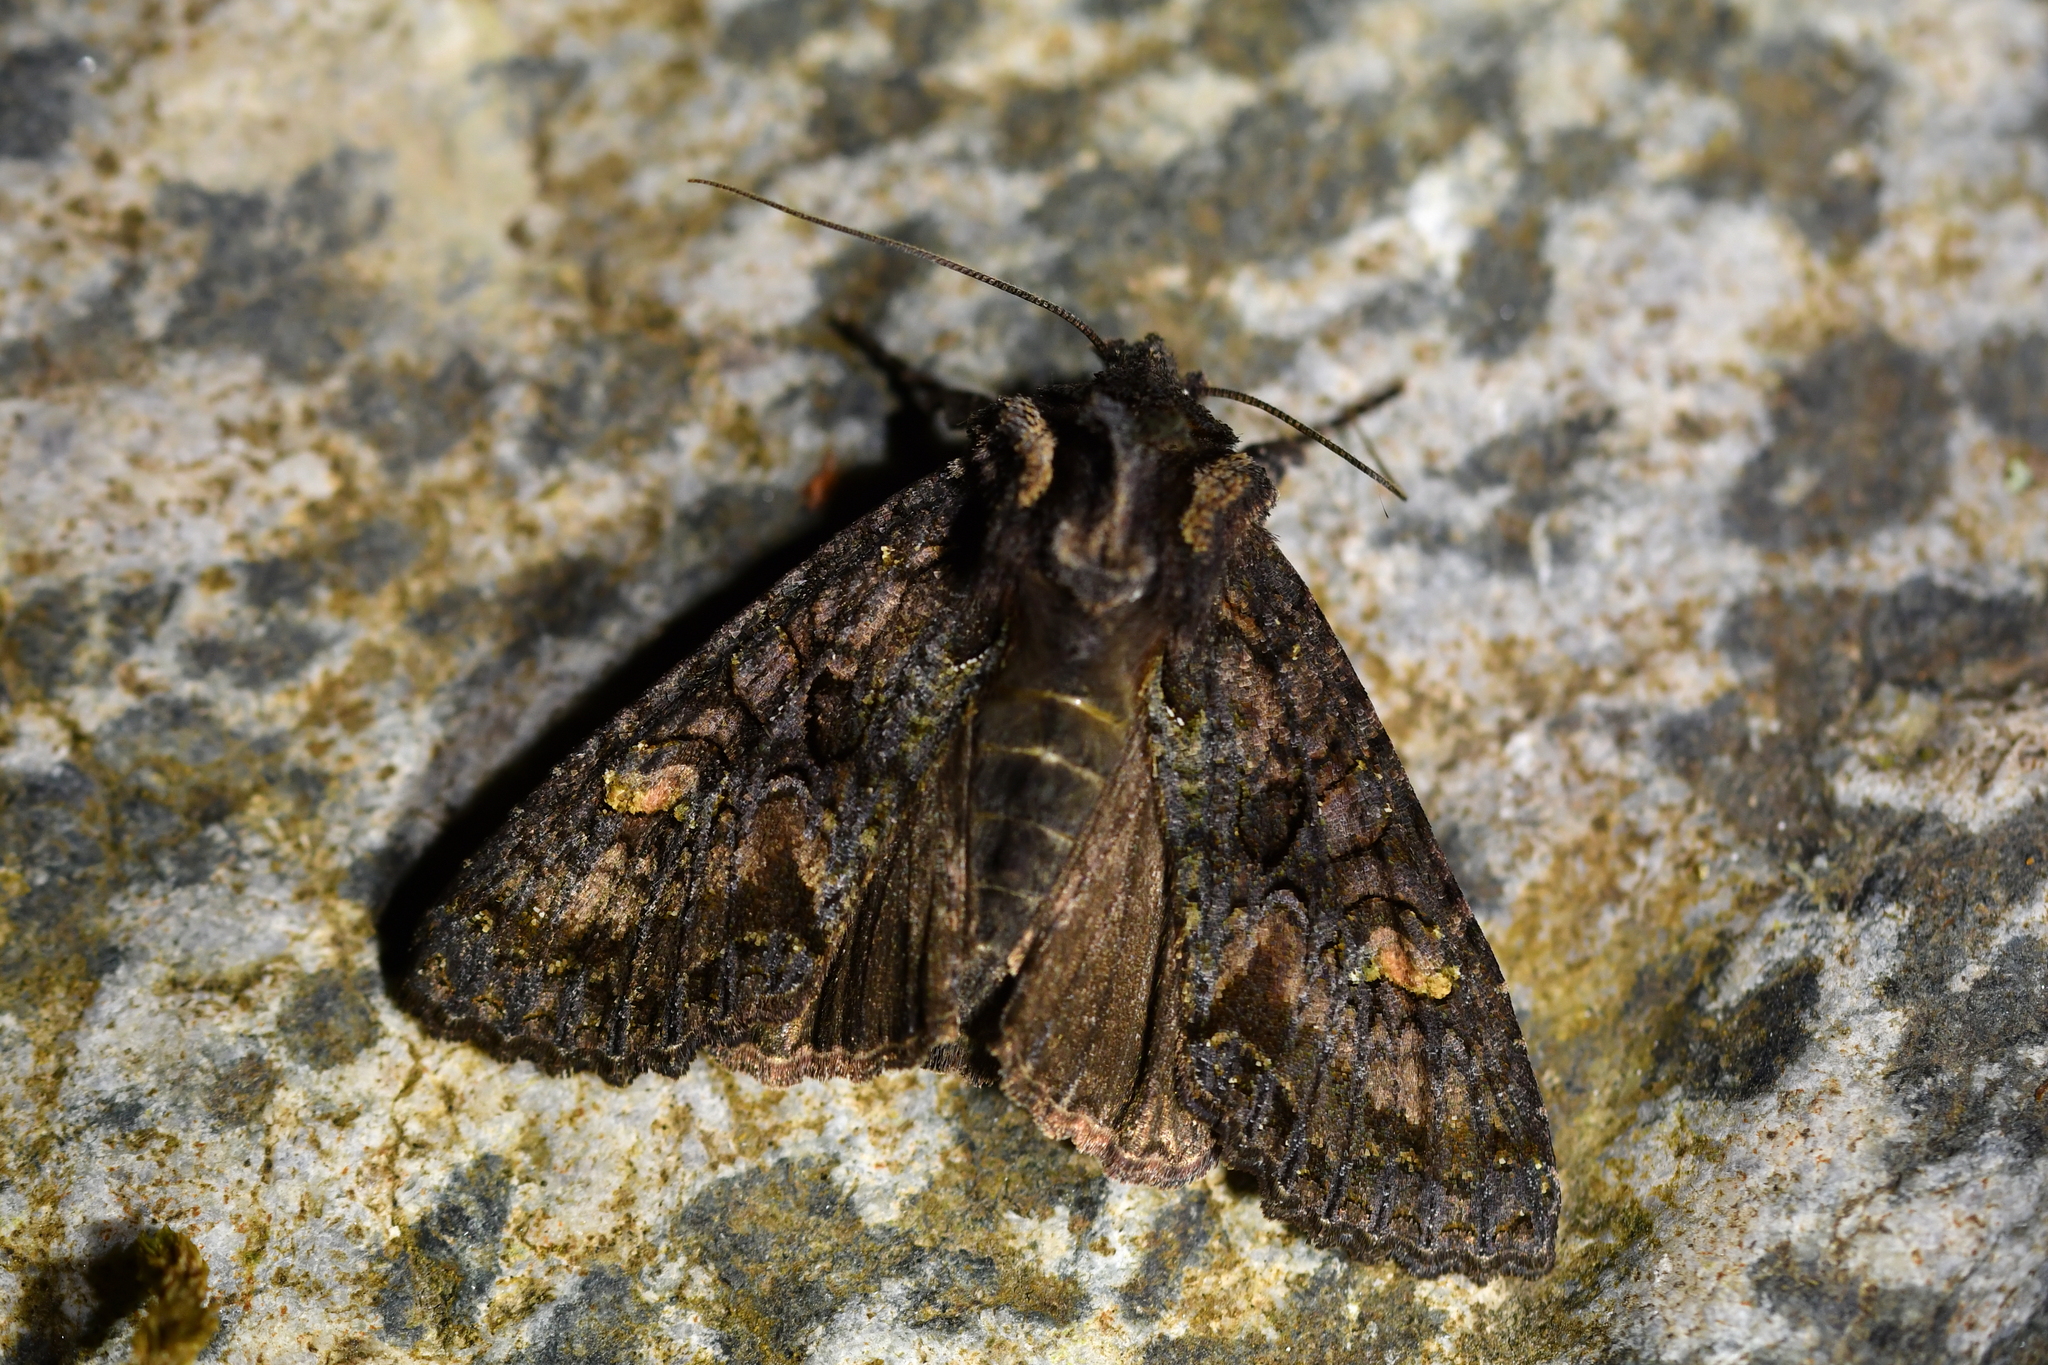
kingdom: Animalia
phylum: Arthropoda
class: Insecta
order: Lepidoptera
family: Noctuidae
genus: Meterana
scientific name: Meterana dotata
